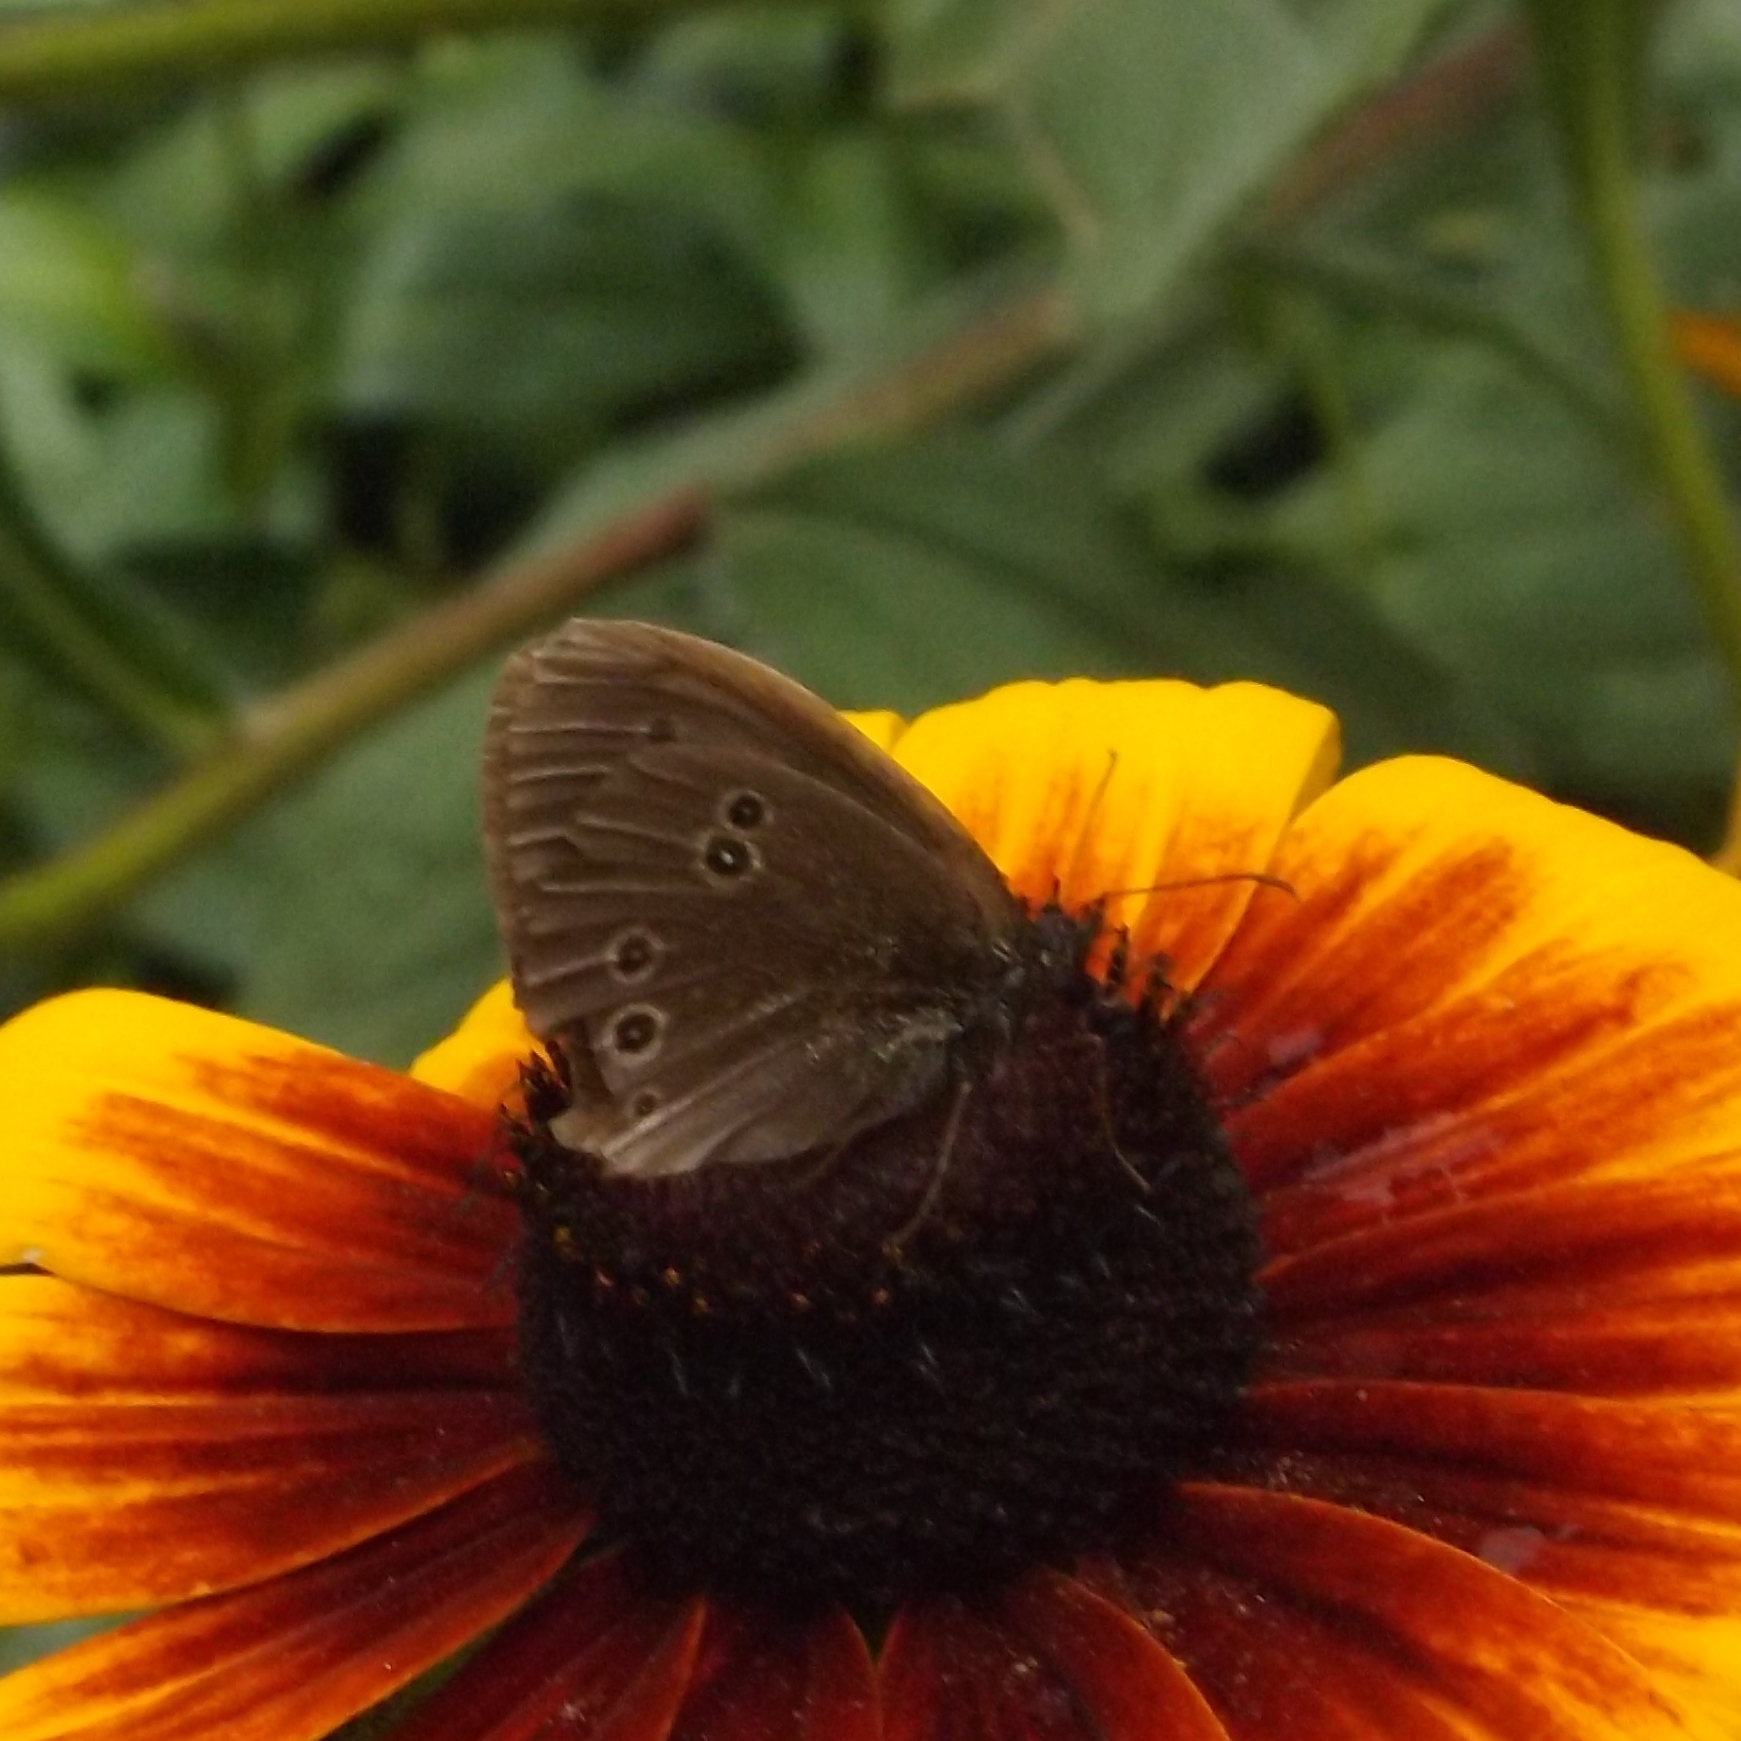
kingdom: Animalia
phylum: Arthropoda
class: Insecta
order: Lepidoptera
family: Nymphalidae
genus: Aphantopus
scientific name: Aphantopus hyperantus
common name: Ringlet
